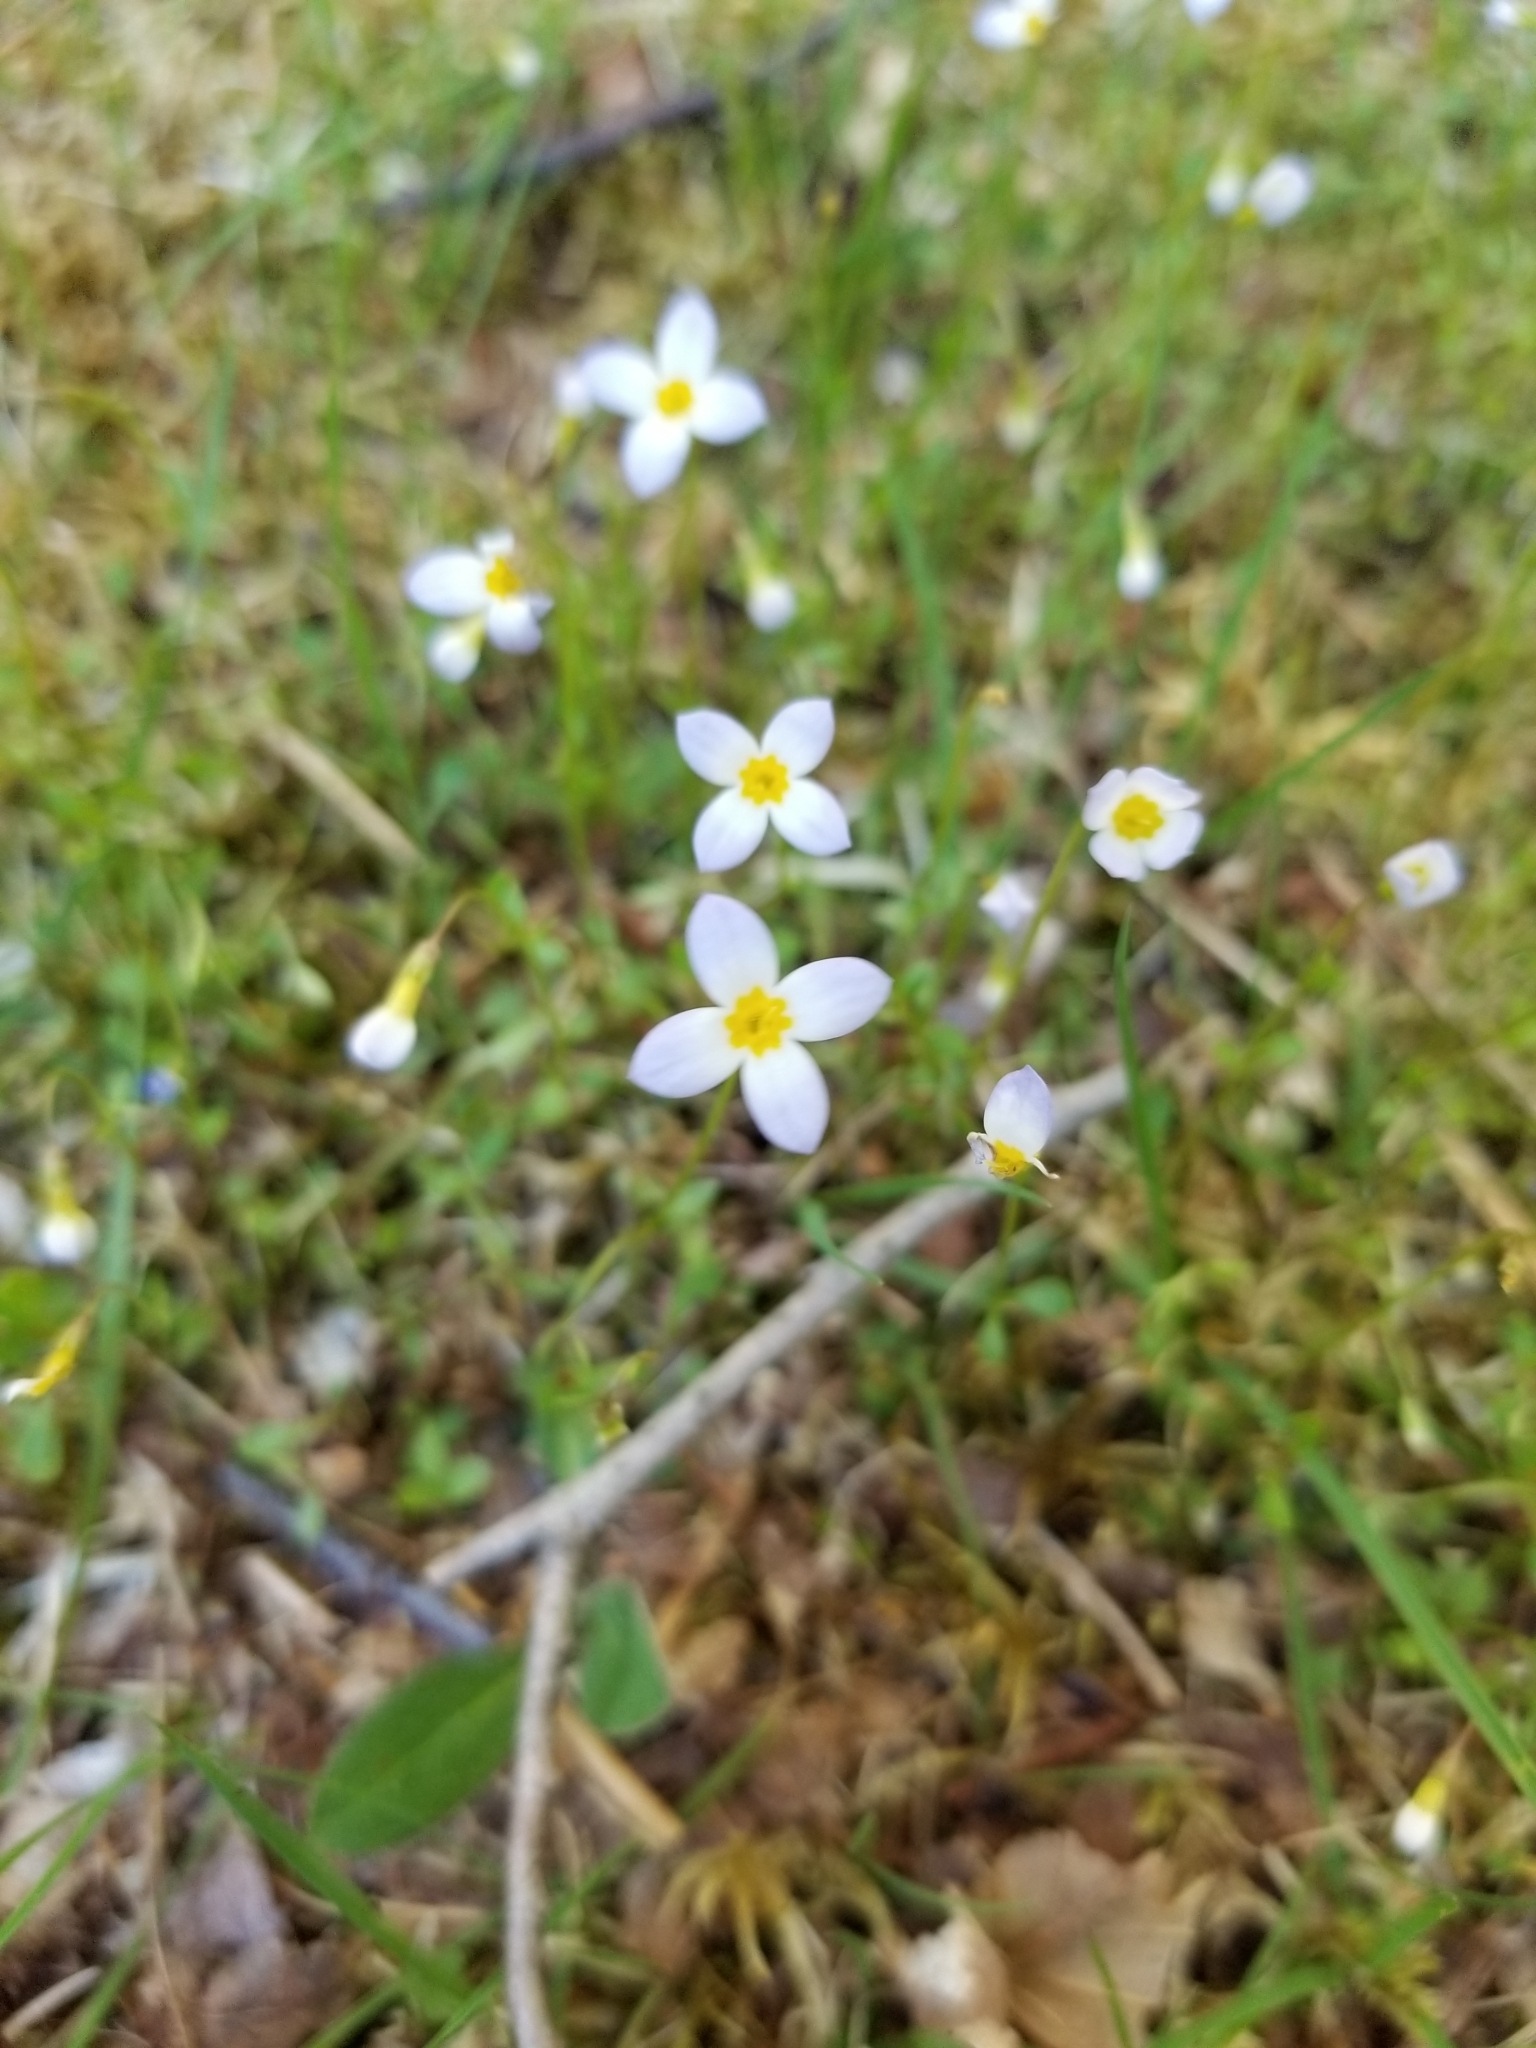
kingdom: Plantae
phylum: Tracheophyta
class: Magnoliopsida
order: Gentianales
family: Rubiaceae
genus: Houstonia
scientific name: Houstonia caerulea
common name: Bluets
